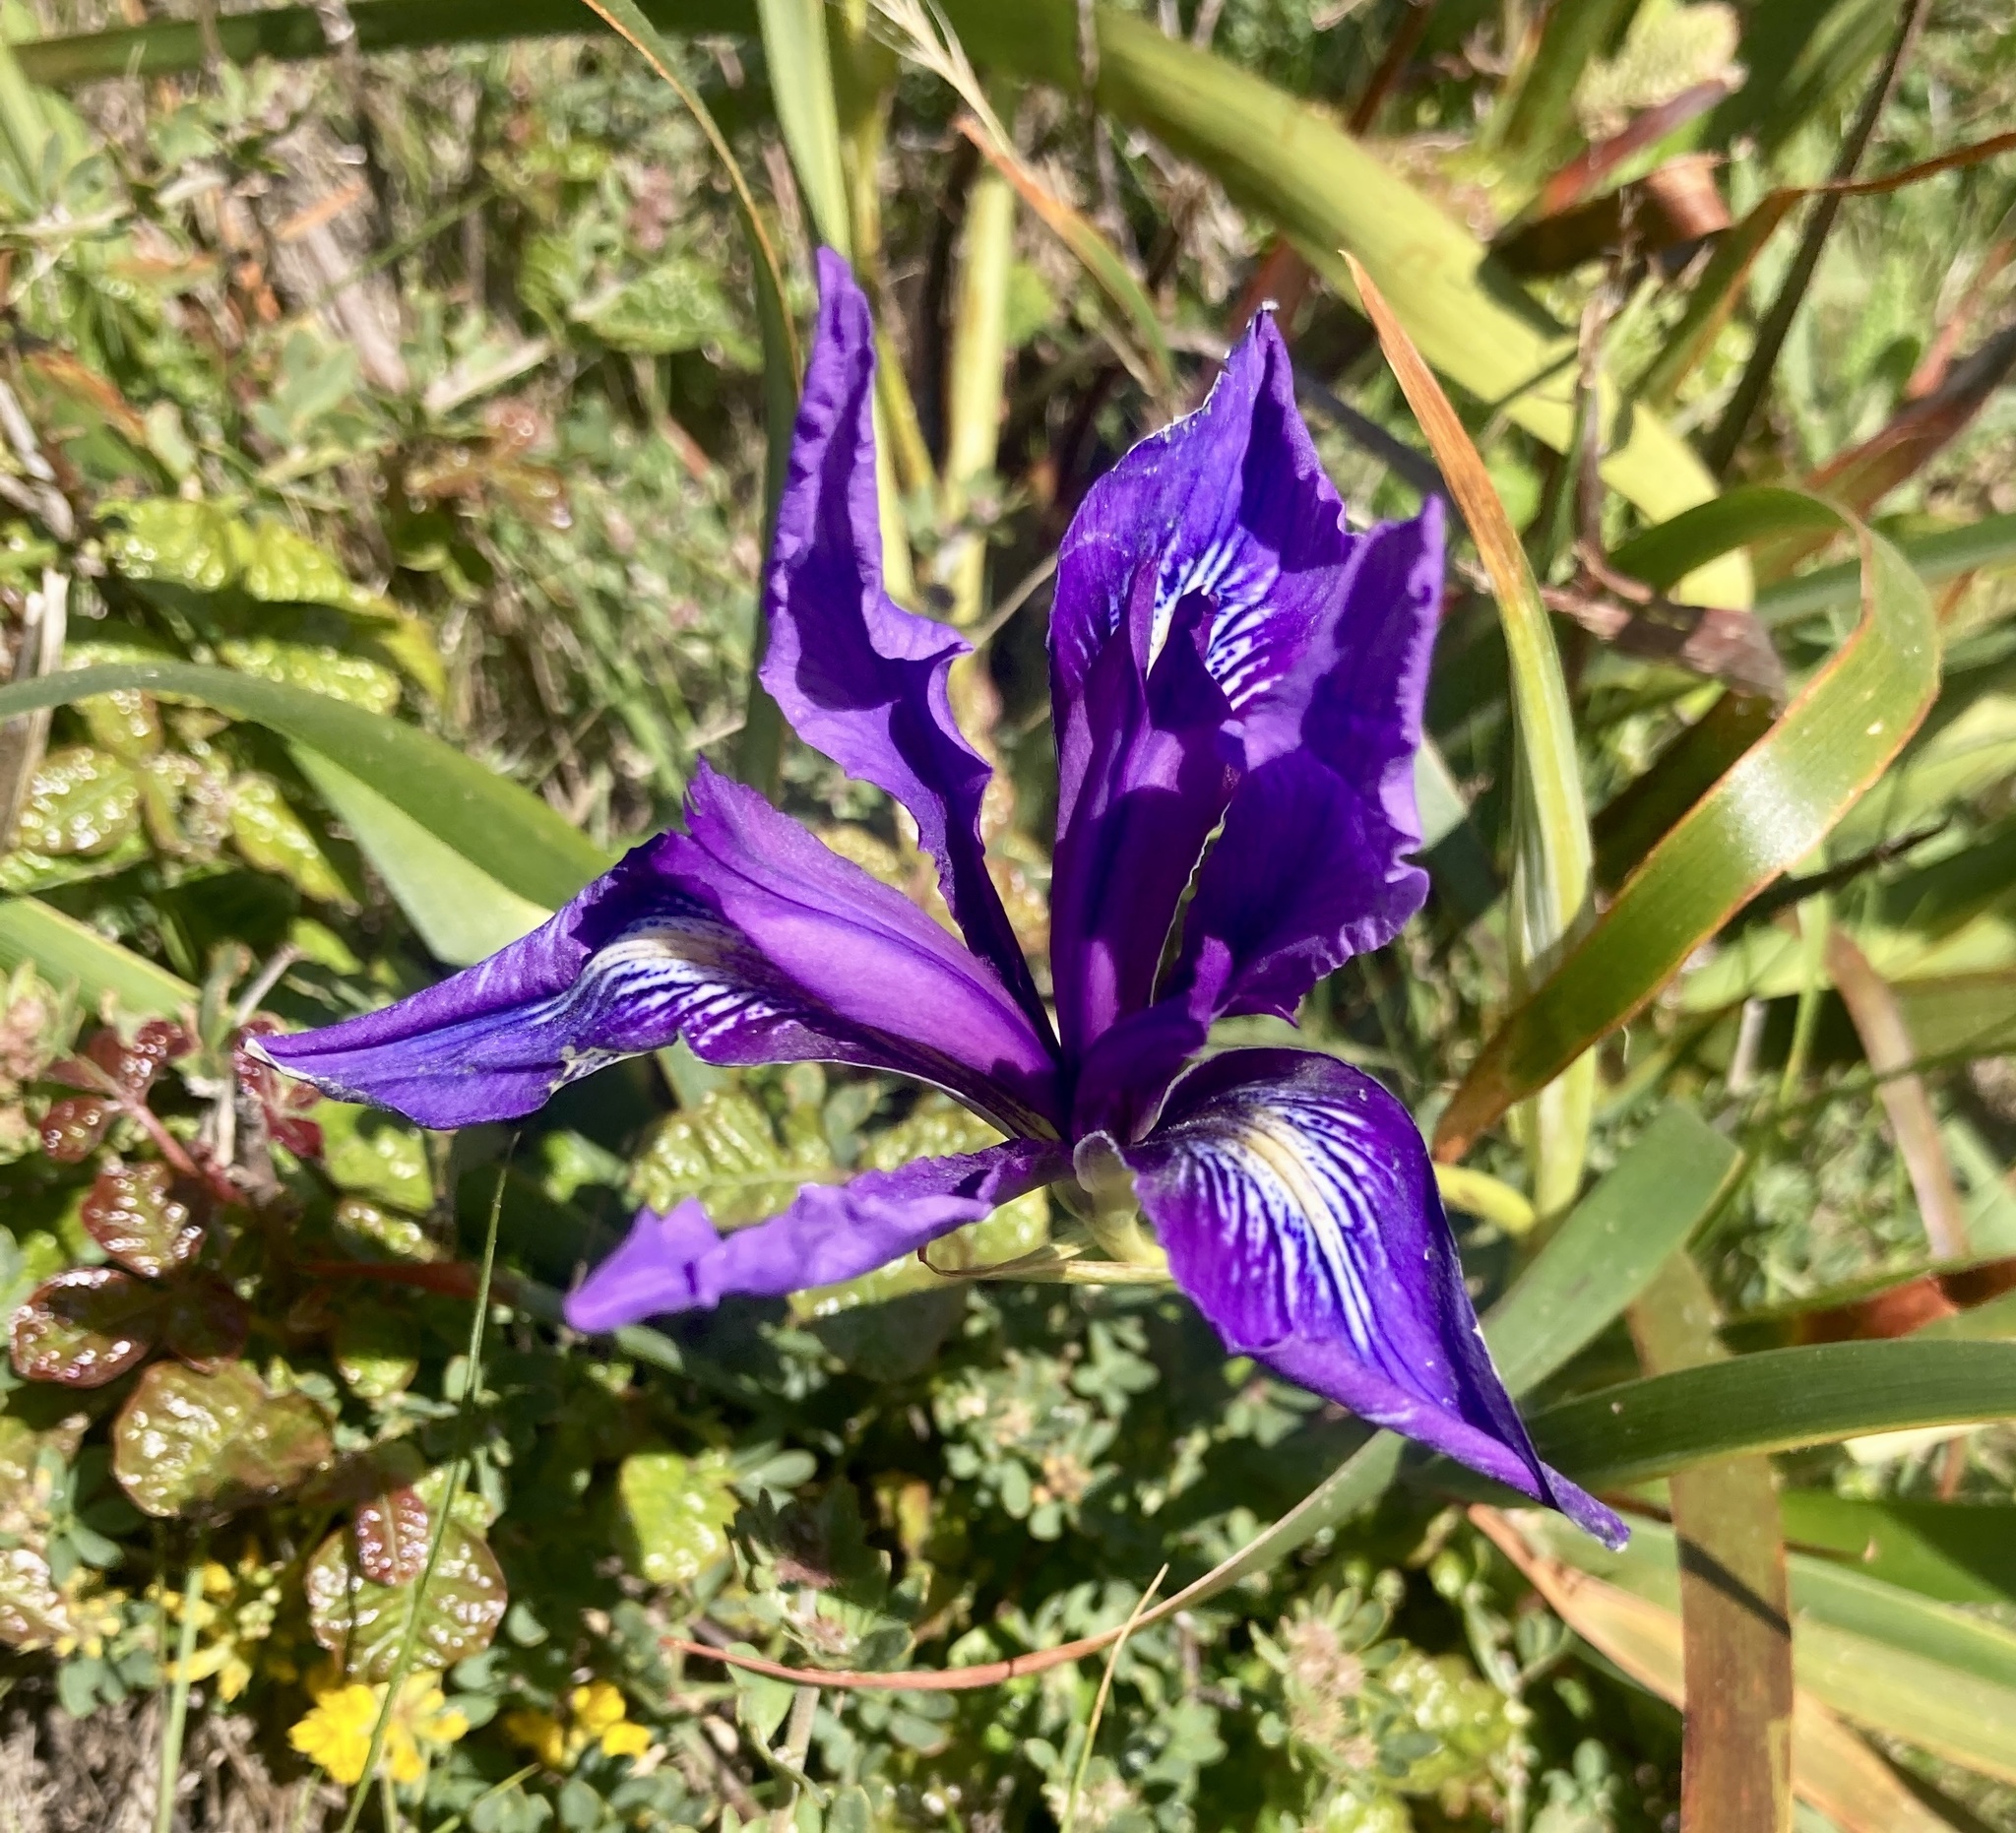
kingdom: Plantae
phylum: Tracheophyta
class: Liliopsida
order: Asparagales
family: Iridaceae
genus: Iris
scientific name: Iris douglasiana
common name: Marin iris
